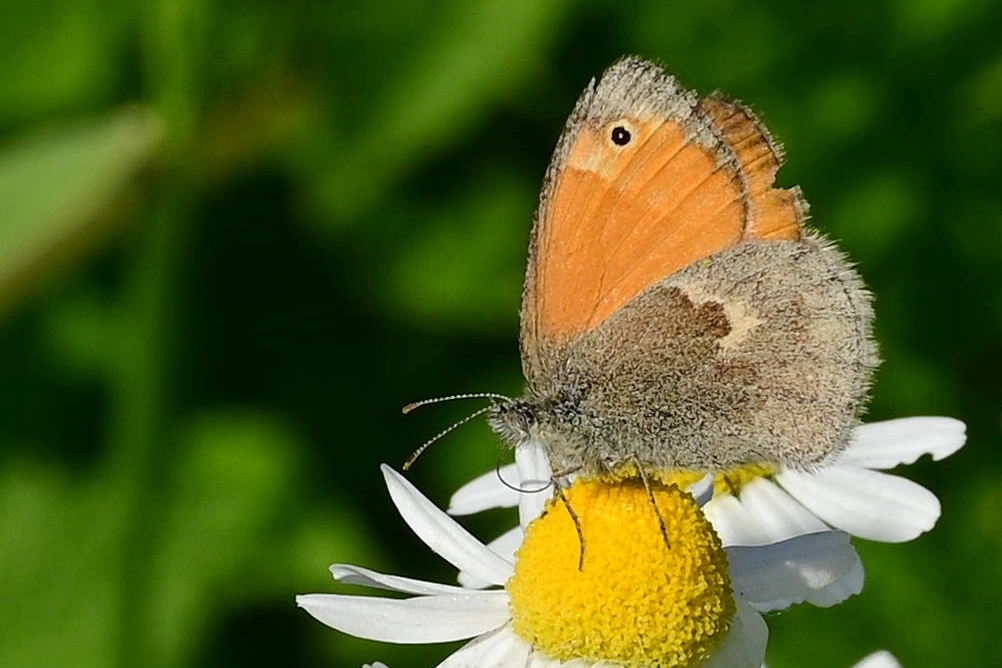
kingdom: Animalia
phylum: Arthropoda
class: Insecta
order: Lepidoptera
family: Nymphalidae
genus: Coenonympha
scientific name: Coenonympha pamphilus
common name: Small heath
